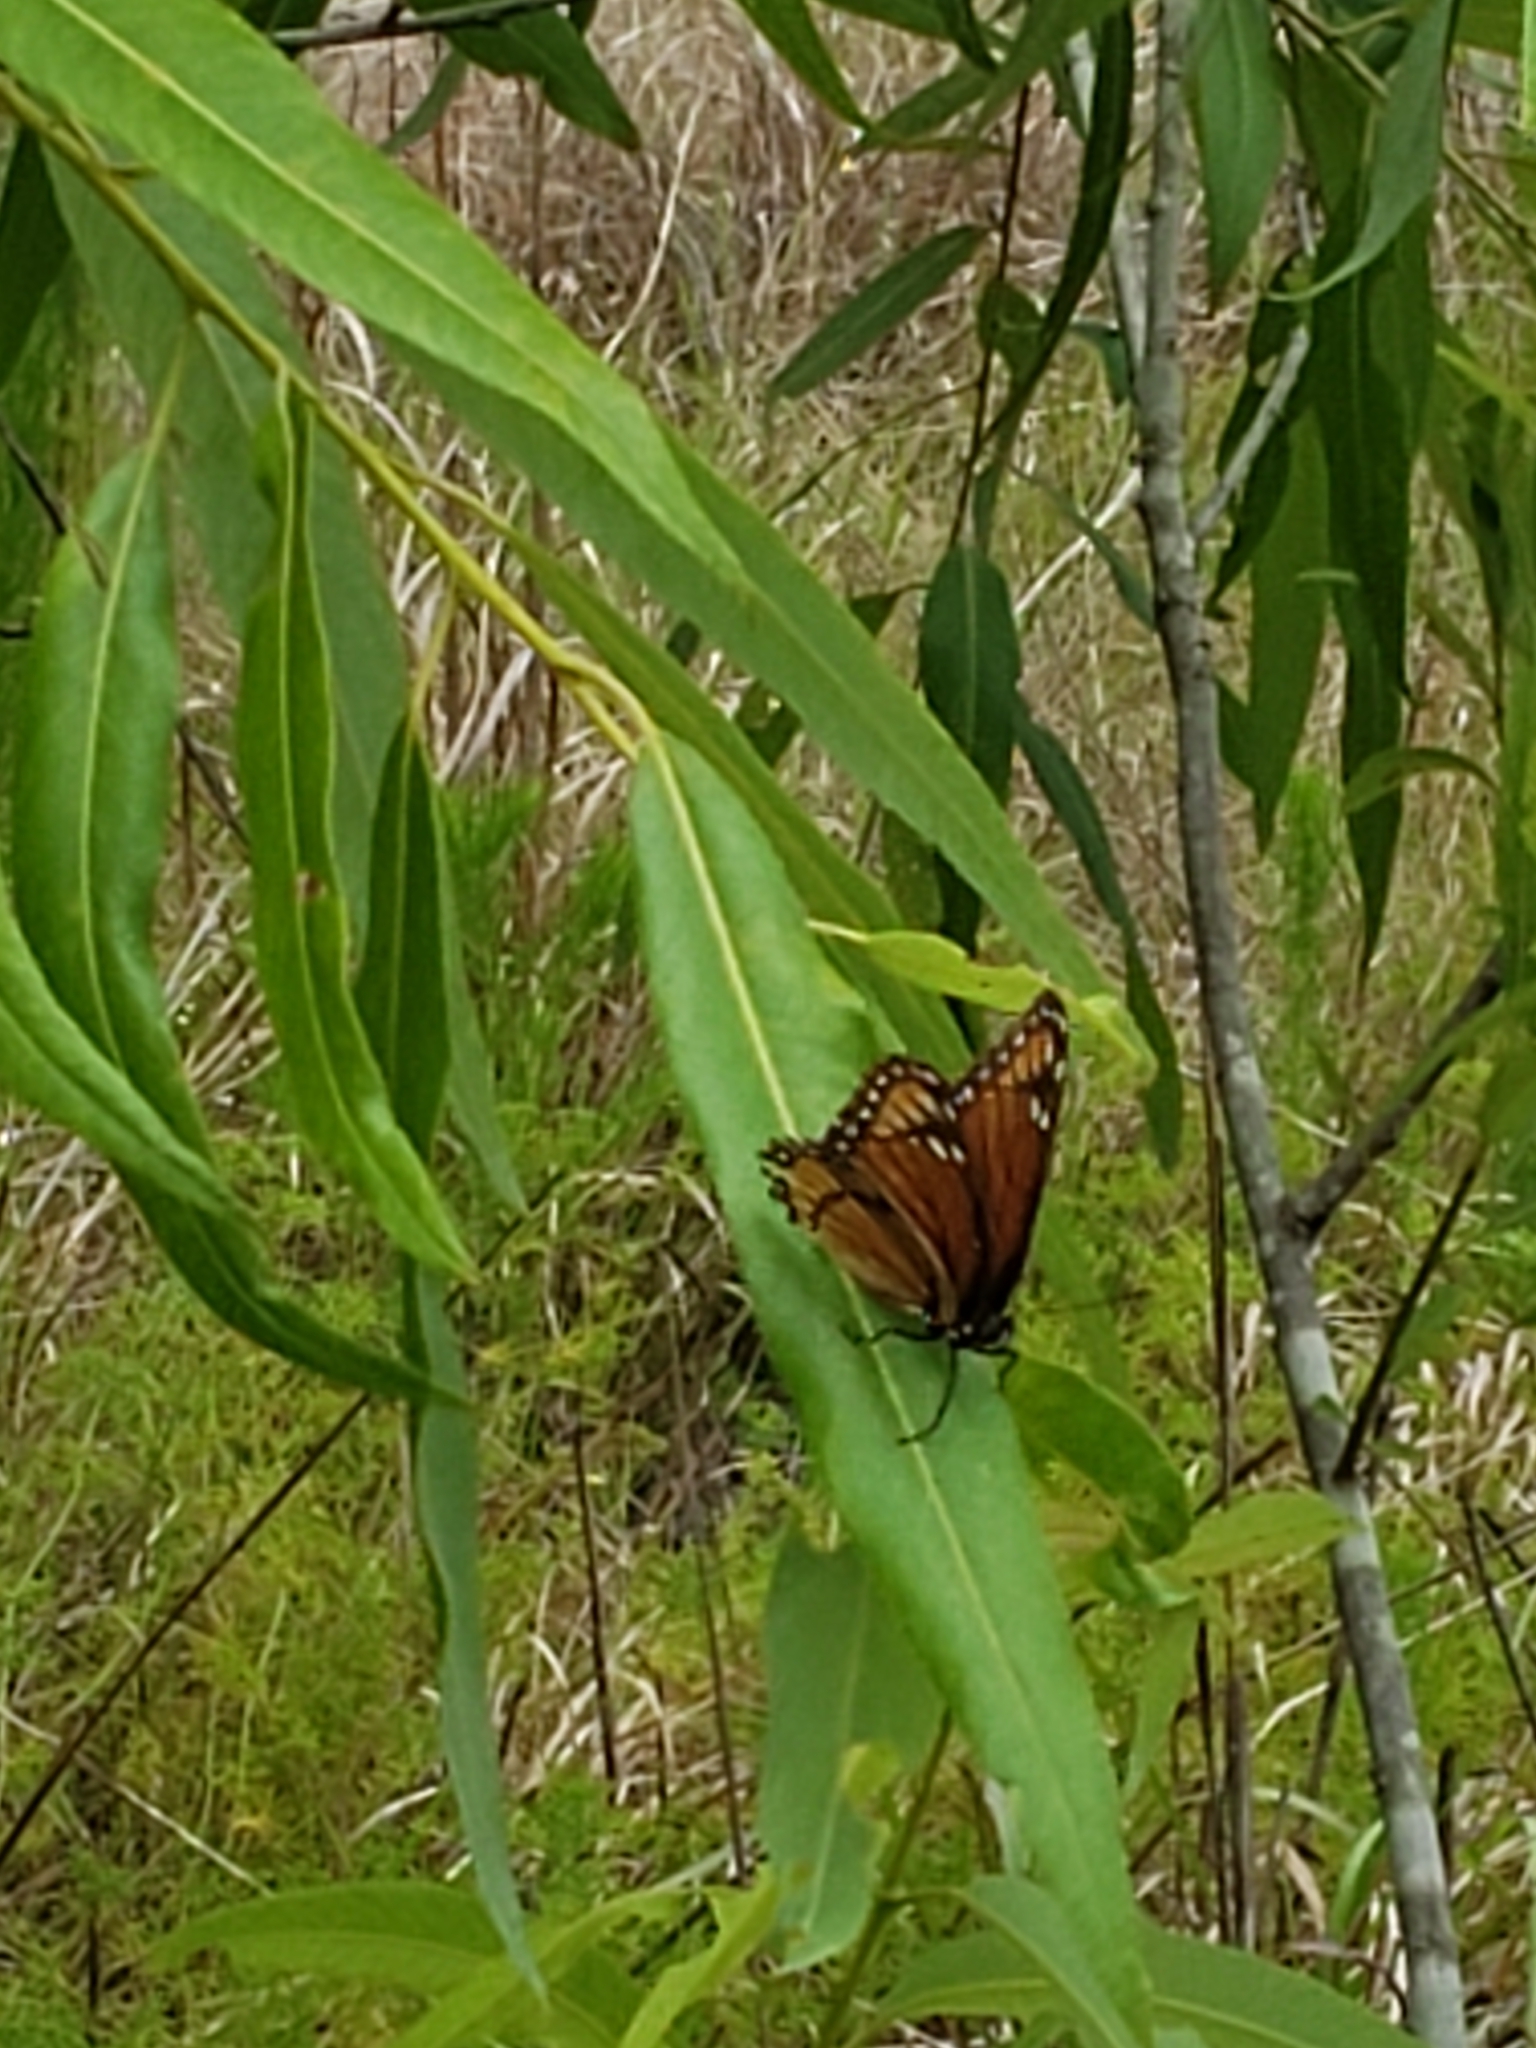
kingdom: Animalia
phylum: Arthropoda
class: Insecta
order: Lepidoptera
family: Nymphalidae
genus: Limenitis
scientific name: Limenitis archippus
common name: Viceroy
